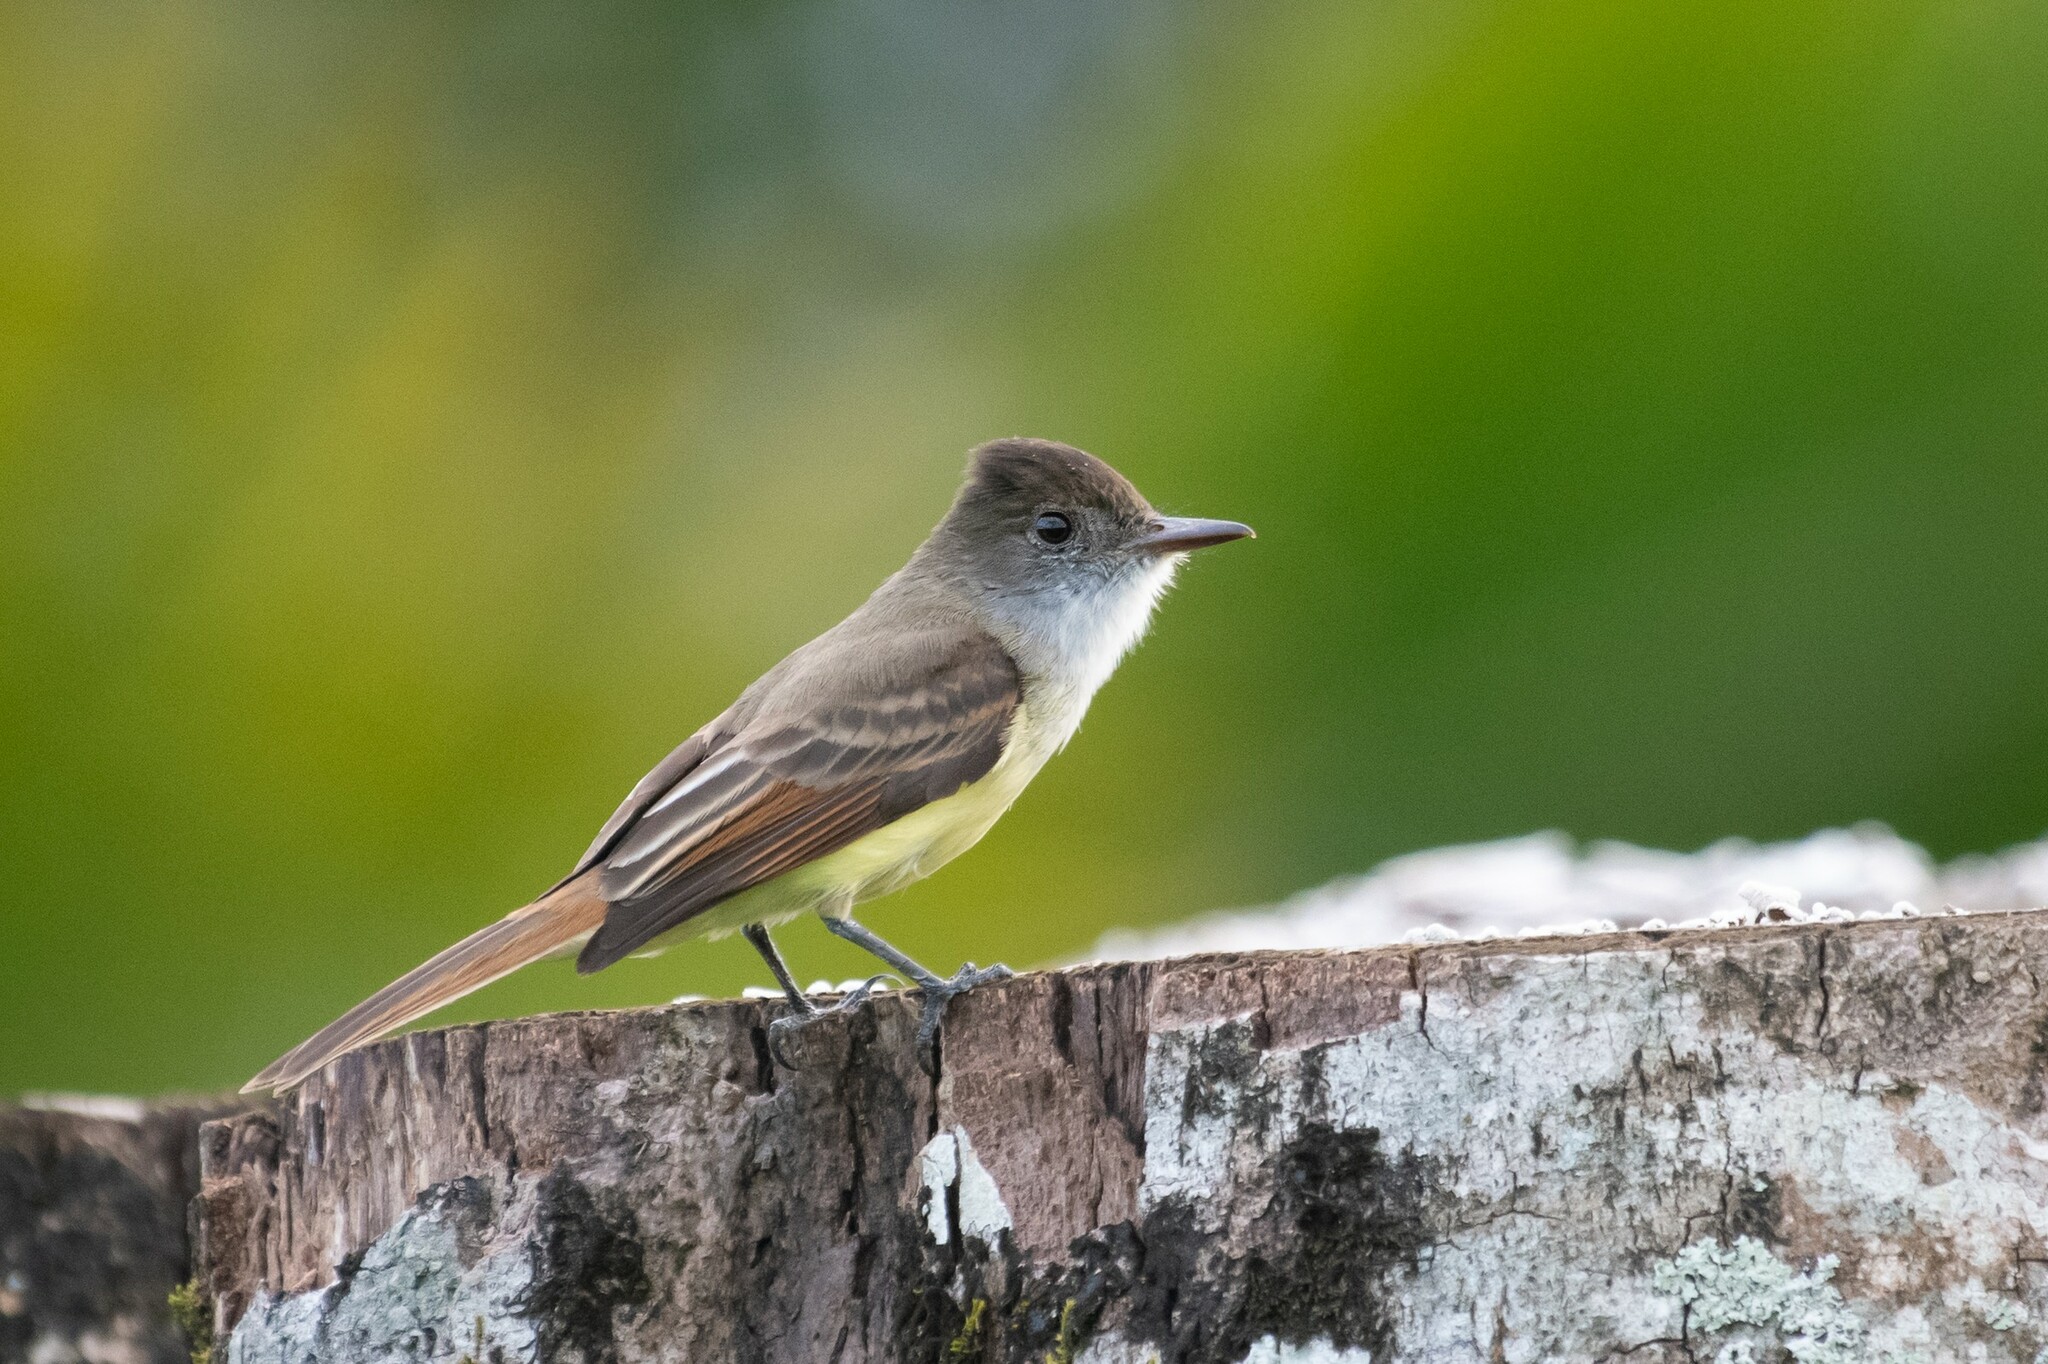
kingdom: Animalia
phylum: Chordata
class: Aves
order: Passeriformes
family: Tyrannidae
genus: Myiarchus
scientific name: Myiarchus tuberculifer
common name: Dusky-capped flycatcher
